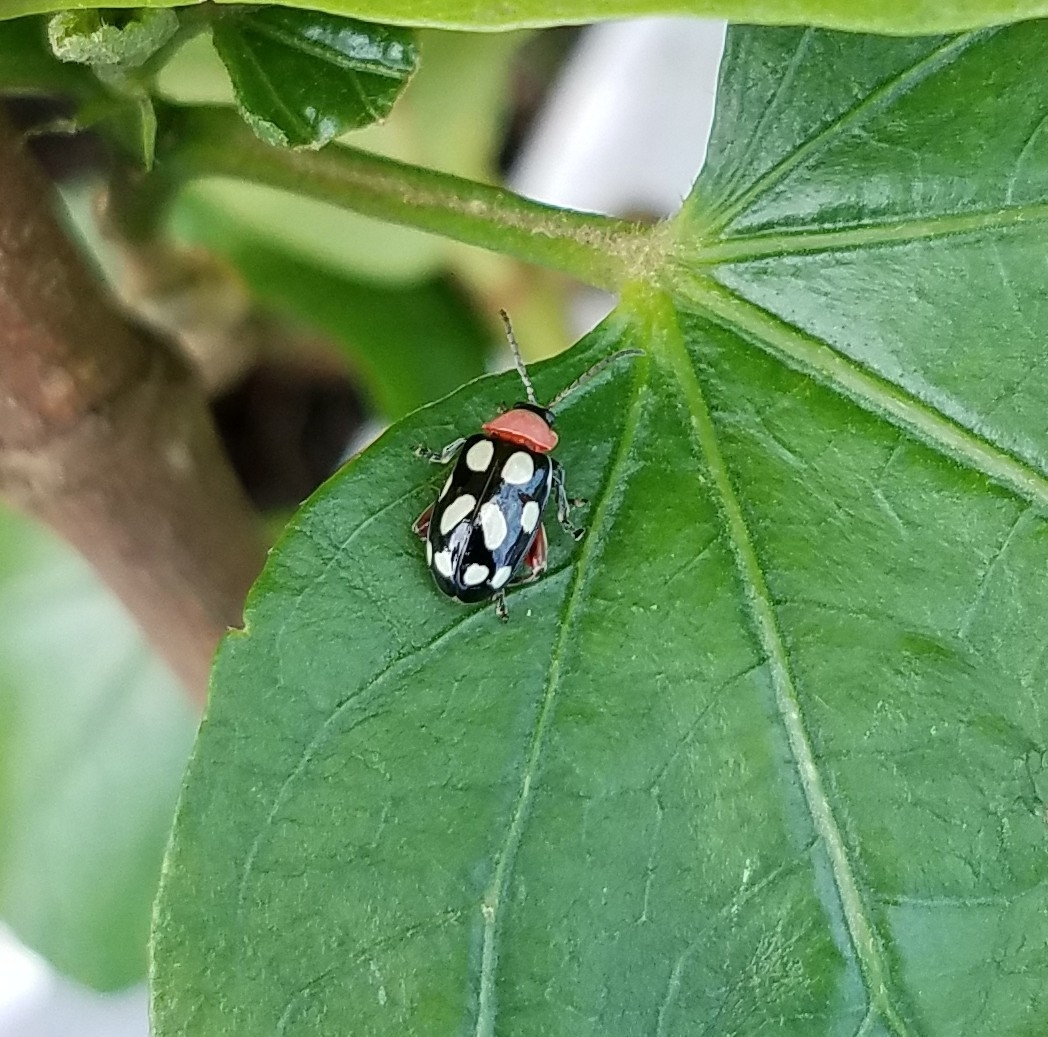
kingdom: Animalia
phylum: Arthropoda
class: Insecta
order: Coleoptera
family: Chrysomelidae
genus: Omophoita
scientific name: Omophoita
